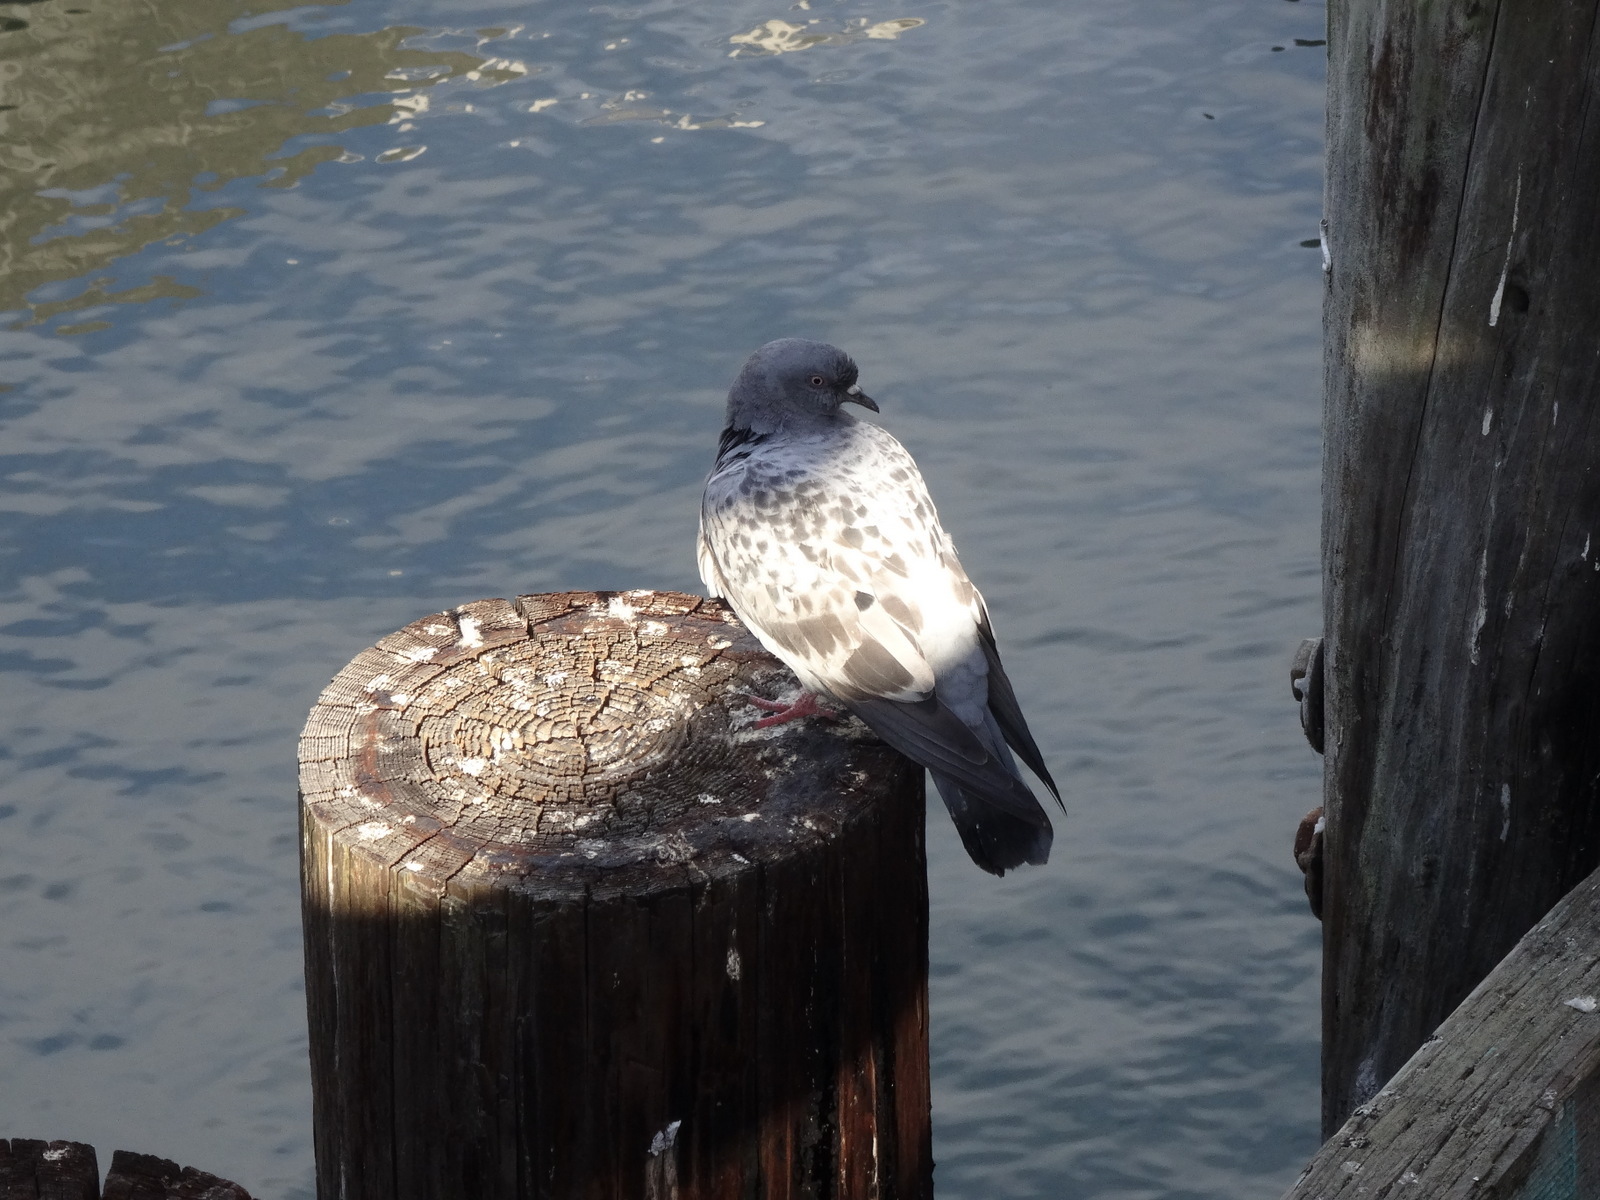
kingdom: Animalia
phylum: Chordata
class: Aves
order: Columbiformes
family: Columbidae
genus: Columba
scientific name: Columba livia
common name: Rock pigeon
